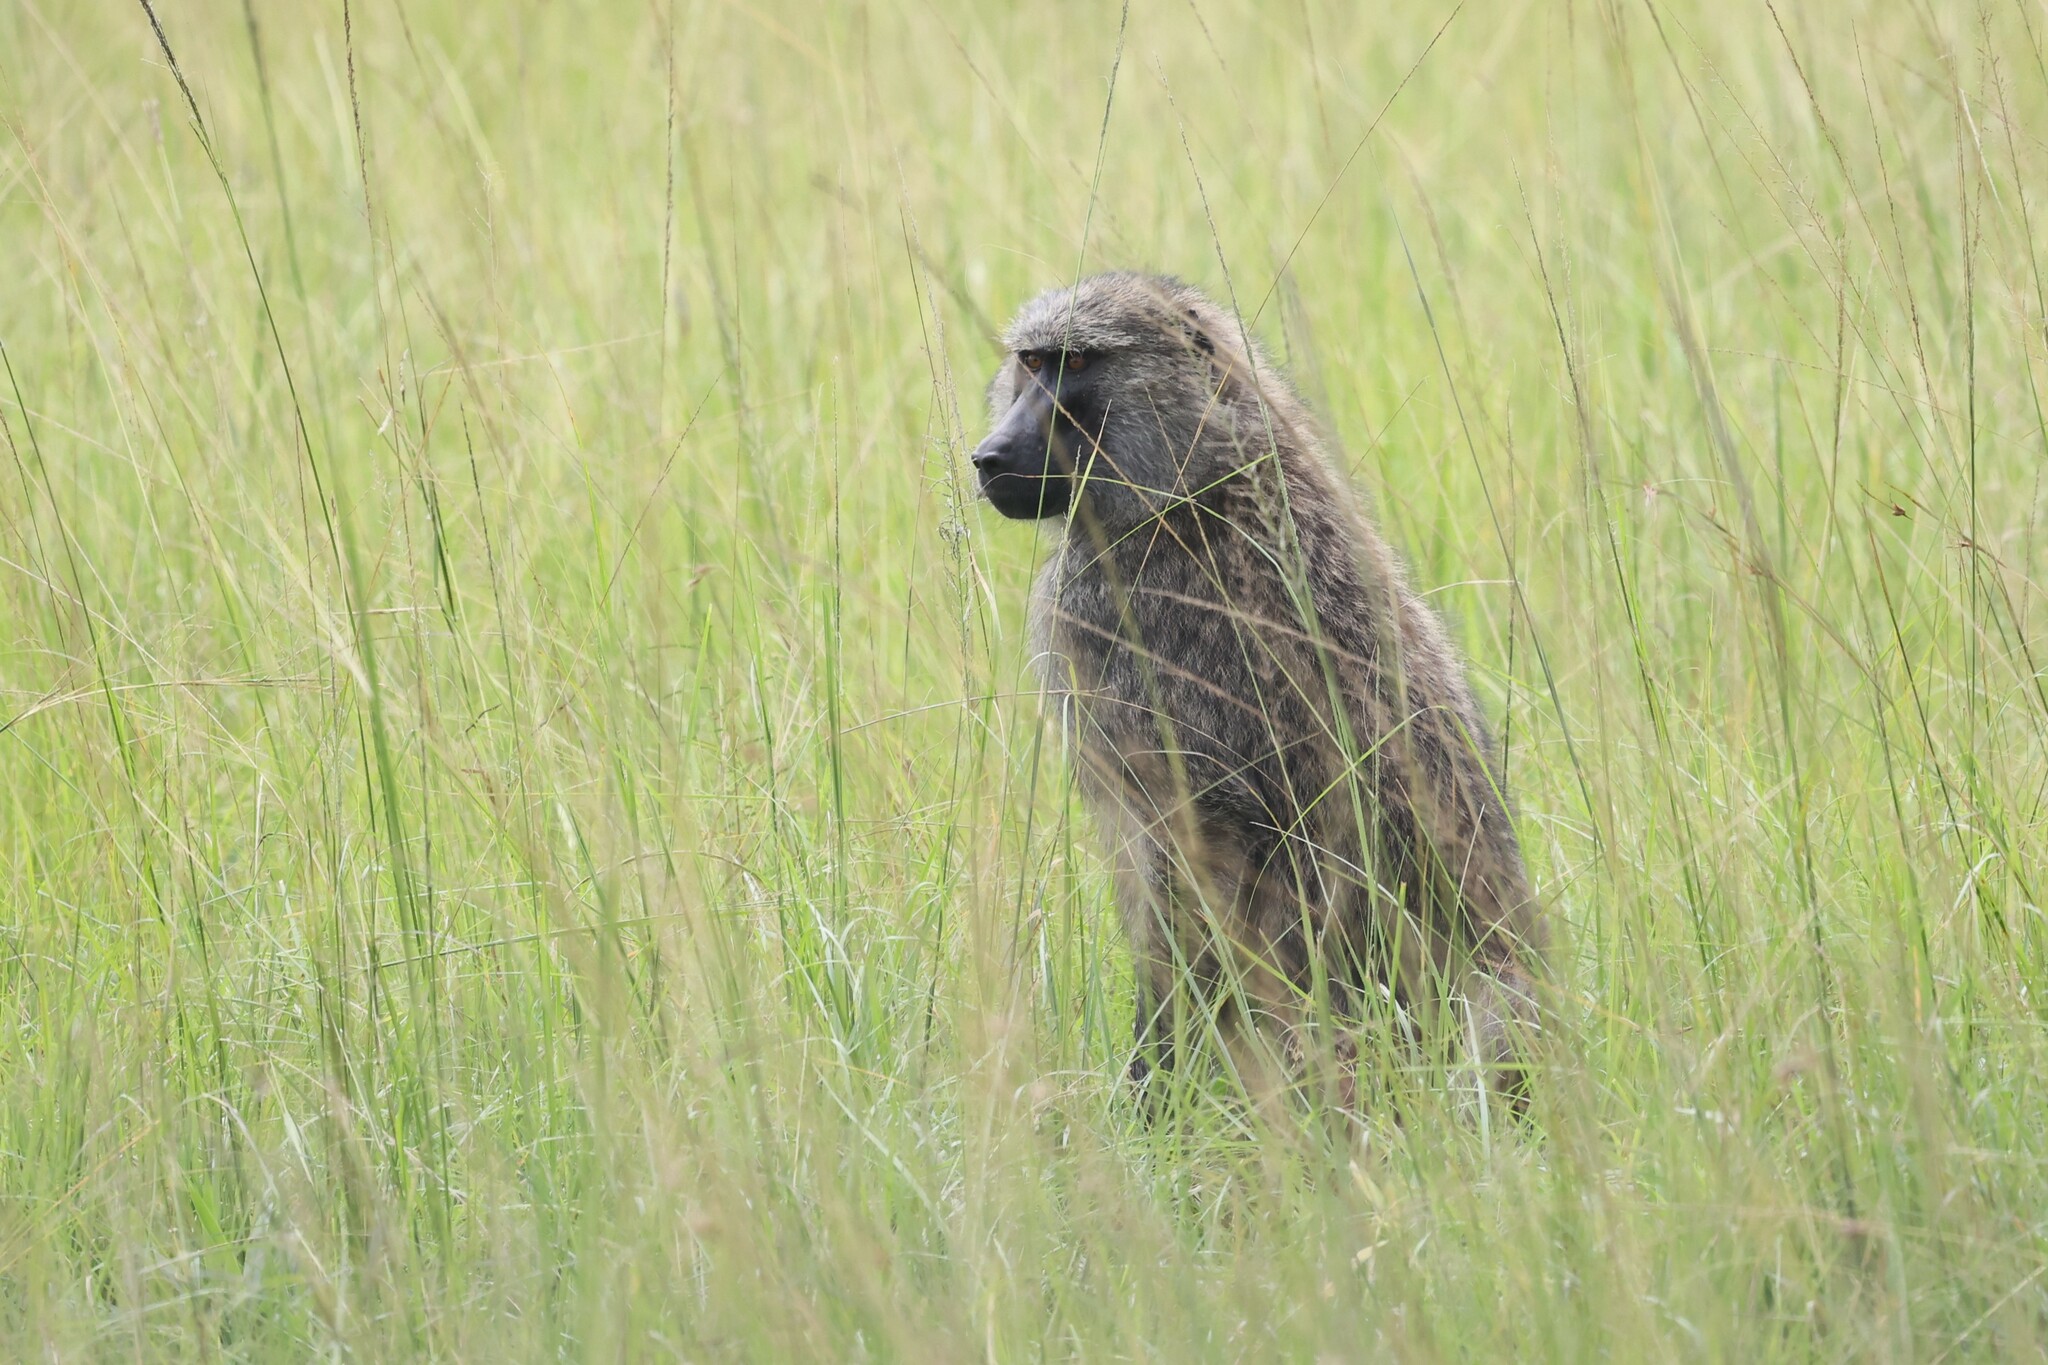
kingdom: Animalia
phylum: Chordata
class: Mammalia
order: Primates
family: Cercopithecidae
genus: Papio
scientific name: Papio anubis
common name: Olive baboon
